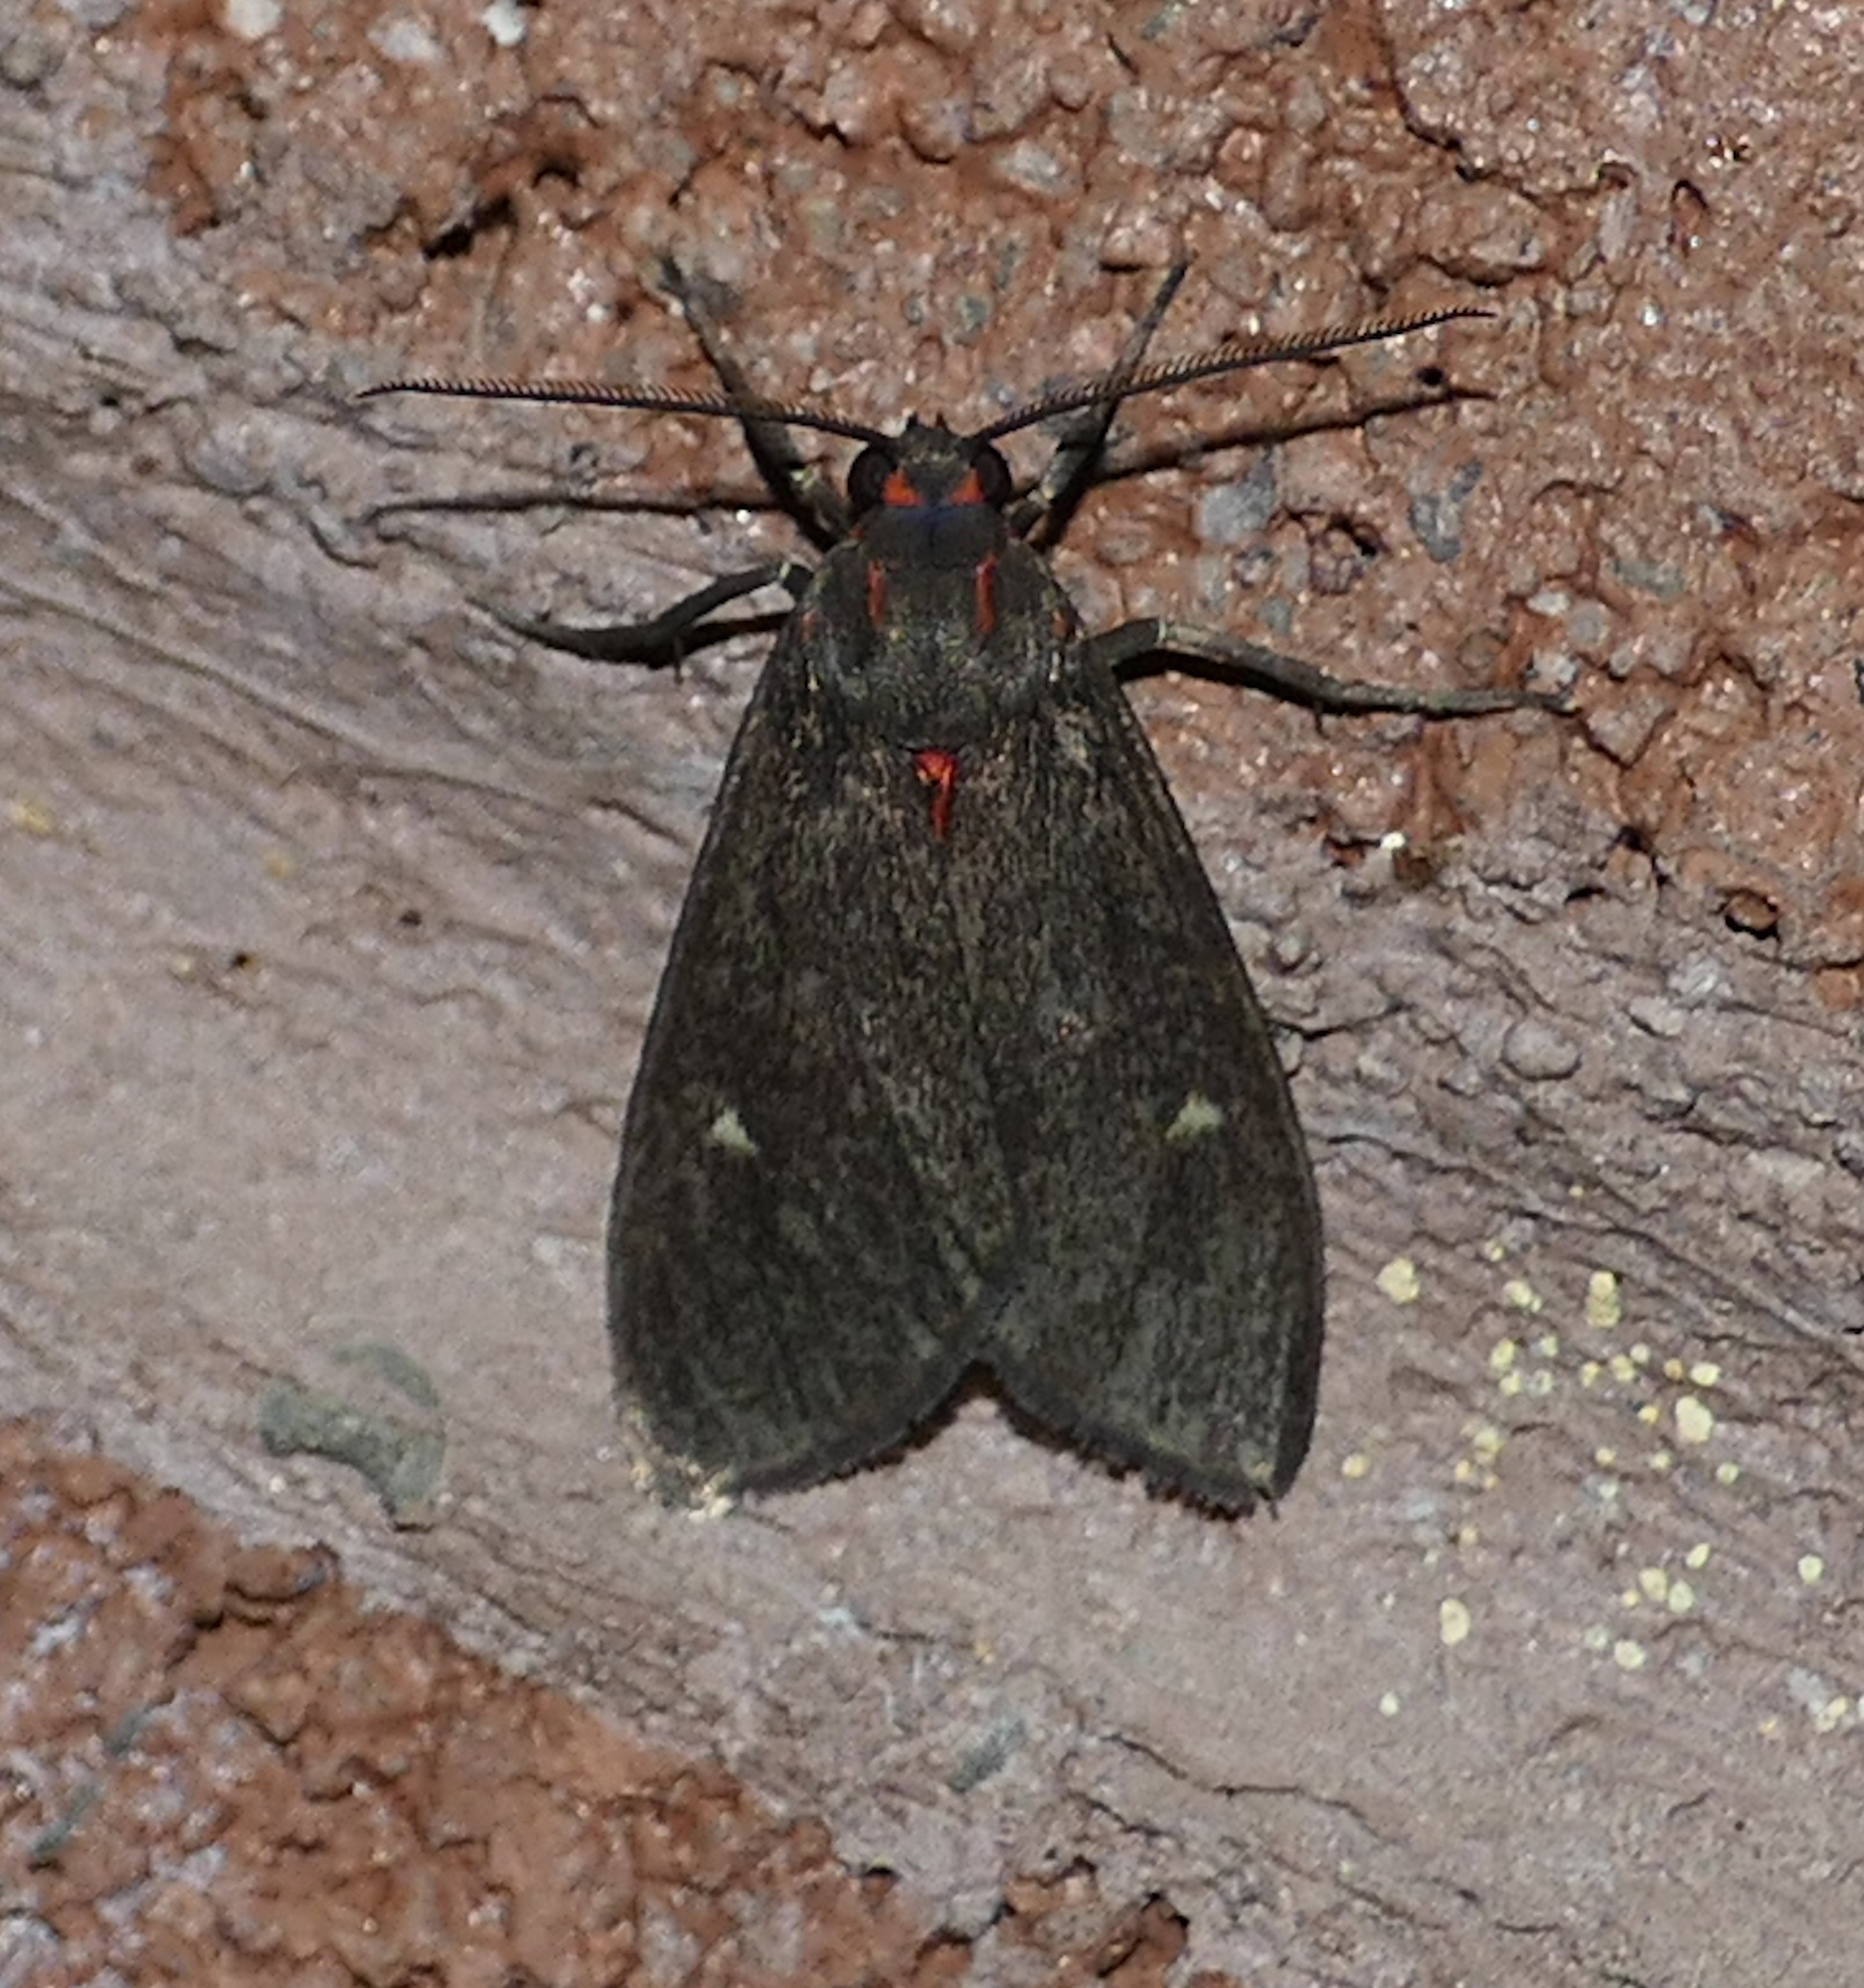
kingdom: Animalia
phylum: Arthropoda
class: Insecta
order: Lepidoptera
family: Erebidae
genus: Euchaetes
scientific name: Euchaetes zella
